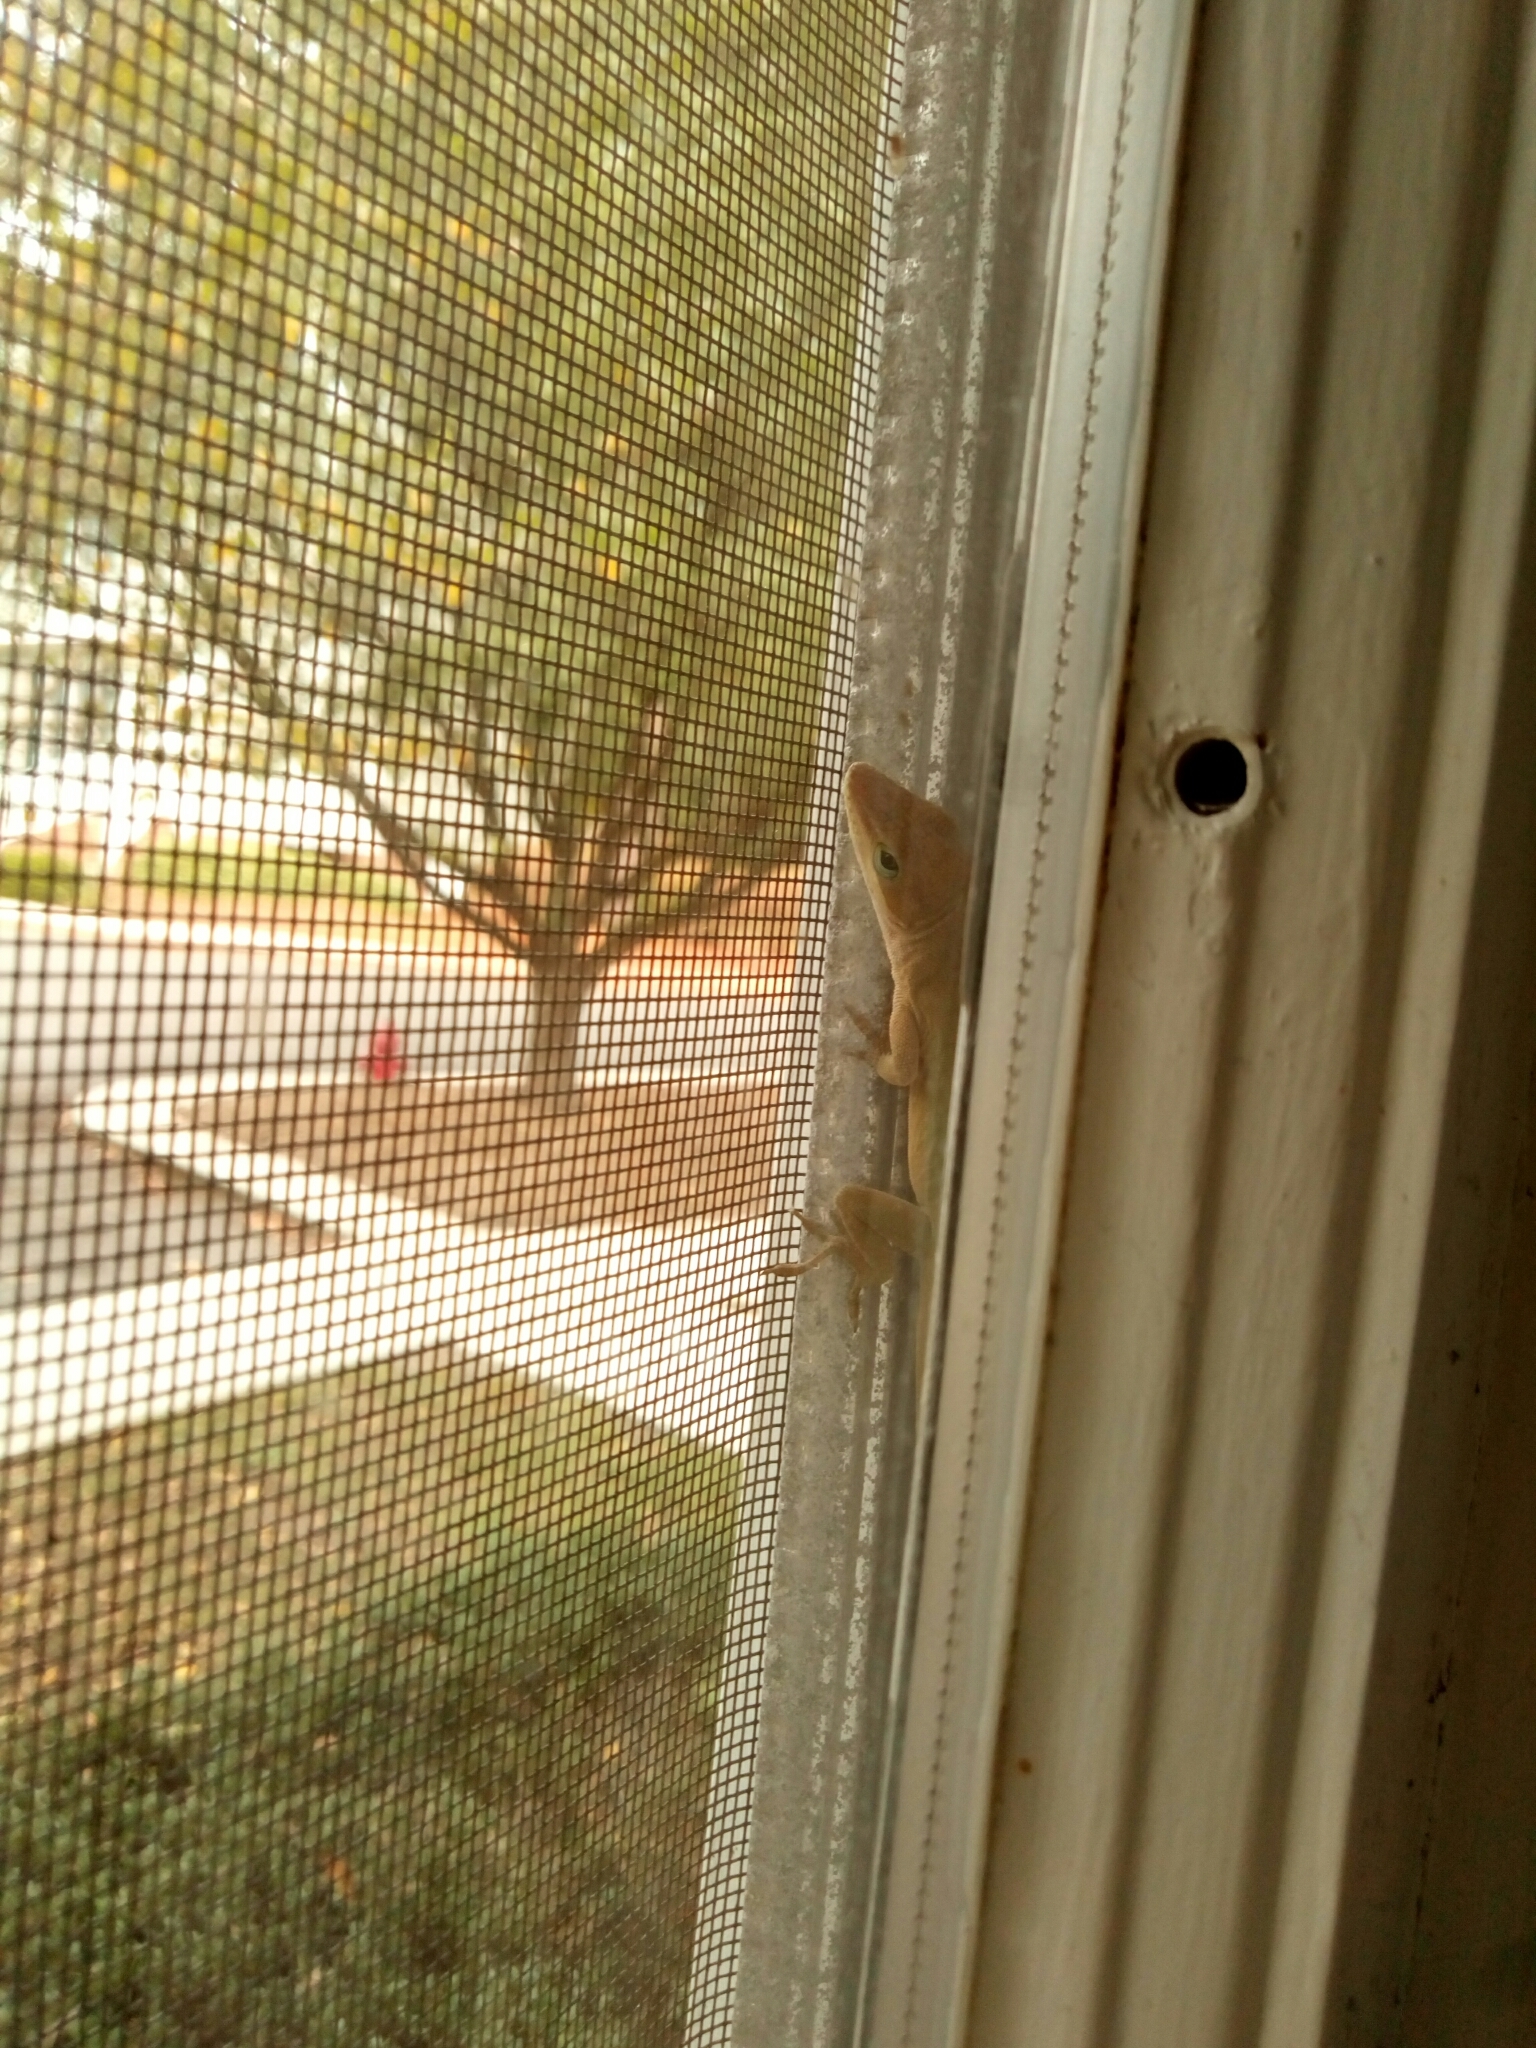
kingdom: Animalia
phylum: Chordata
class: Squamata
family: Dactyloidae
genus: Anolis
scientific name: Anolis carolinensis
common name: Green anole
